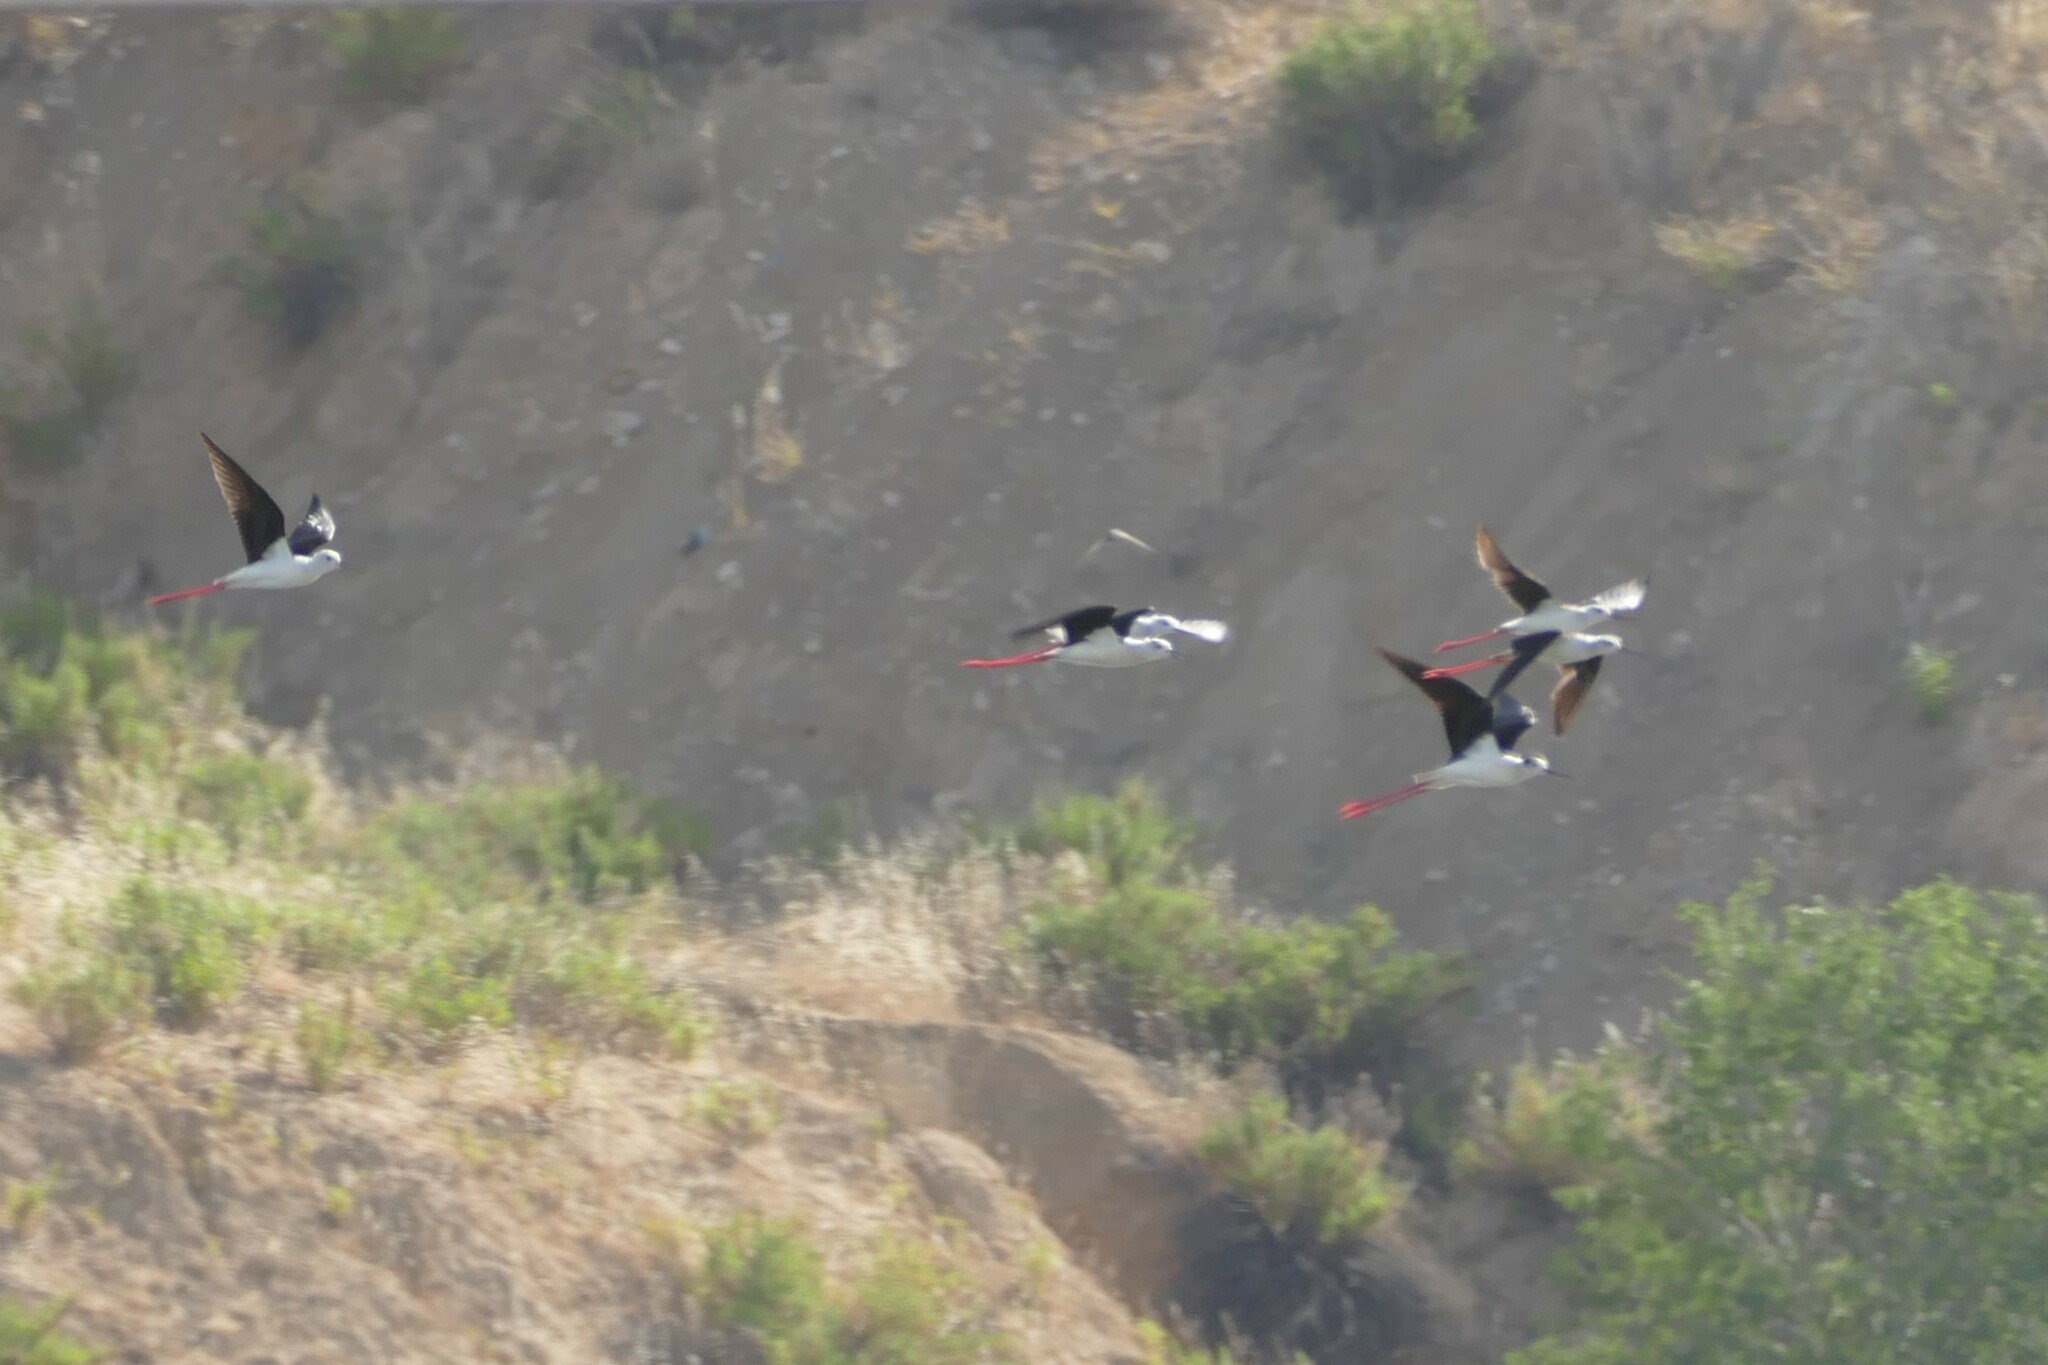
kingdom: Animalia
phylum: Chordata
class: Aves
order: Charadriiformes
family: Recurvirostridae
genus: Himantopus
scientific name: Himantopus himantopus
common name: Black-winged stilt
